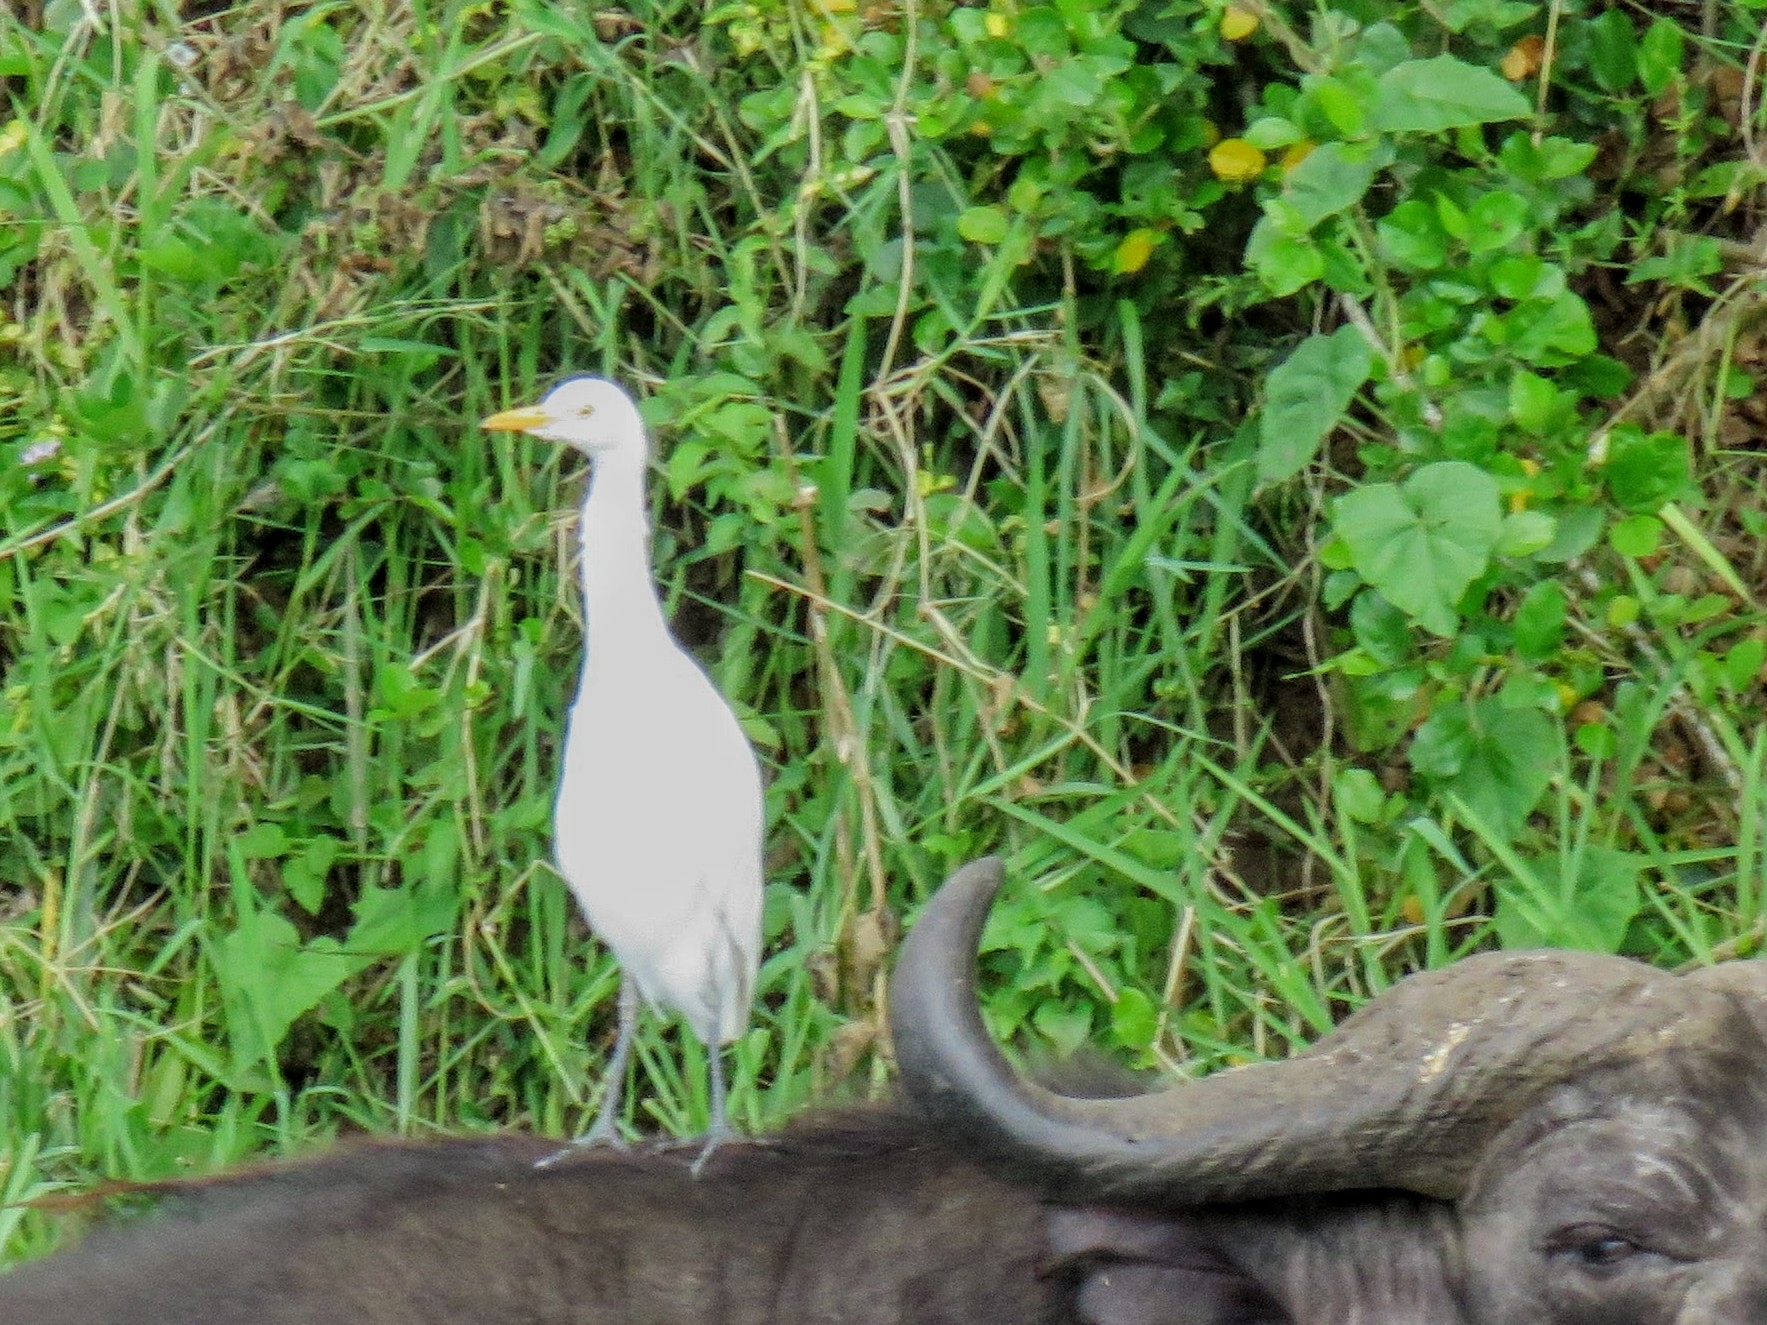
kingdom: Animalia
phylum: Chordata
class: Aves
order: Pelecaniformes
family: Ardeidae
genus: Bubulcus
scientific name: Bubulcus ibis
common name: Cattle egret
